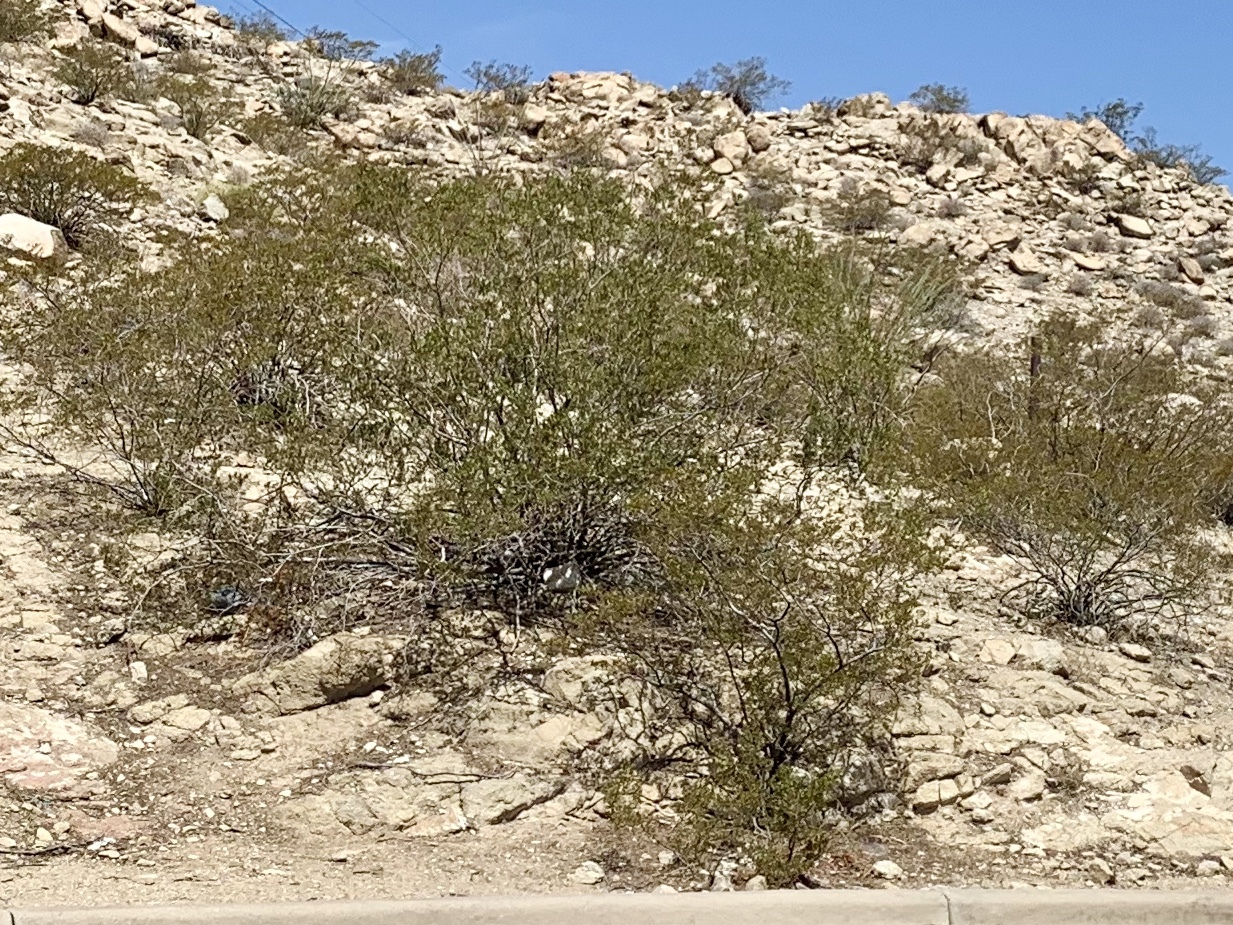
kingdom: Plantae
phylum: Tracheophyta
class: Magnoliopsida
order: Zygophyllales
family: Zygophyllaceae
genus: Larrea
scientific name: Larrea tridentata
